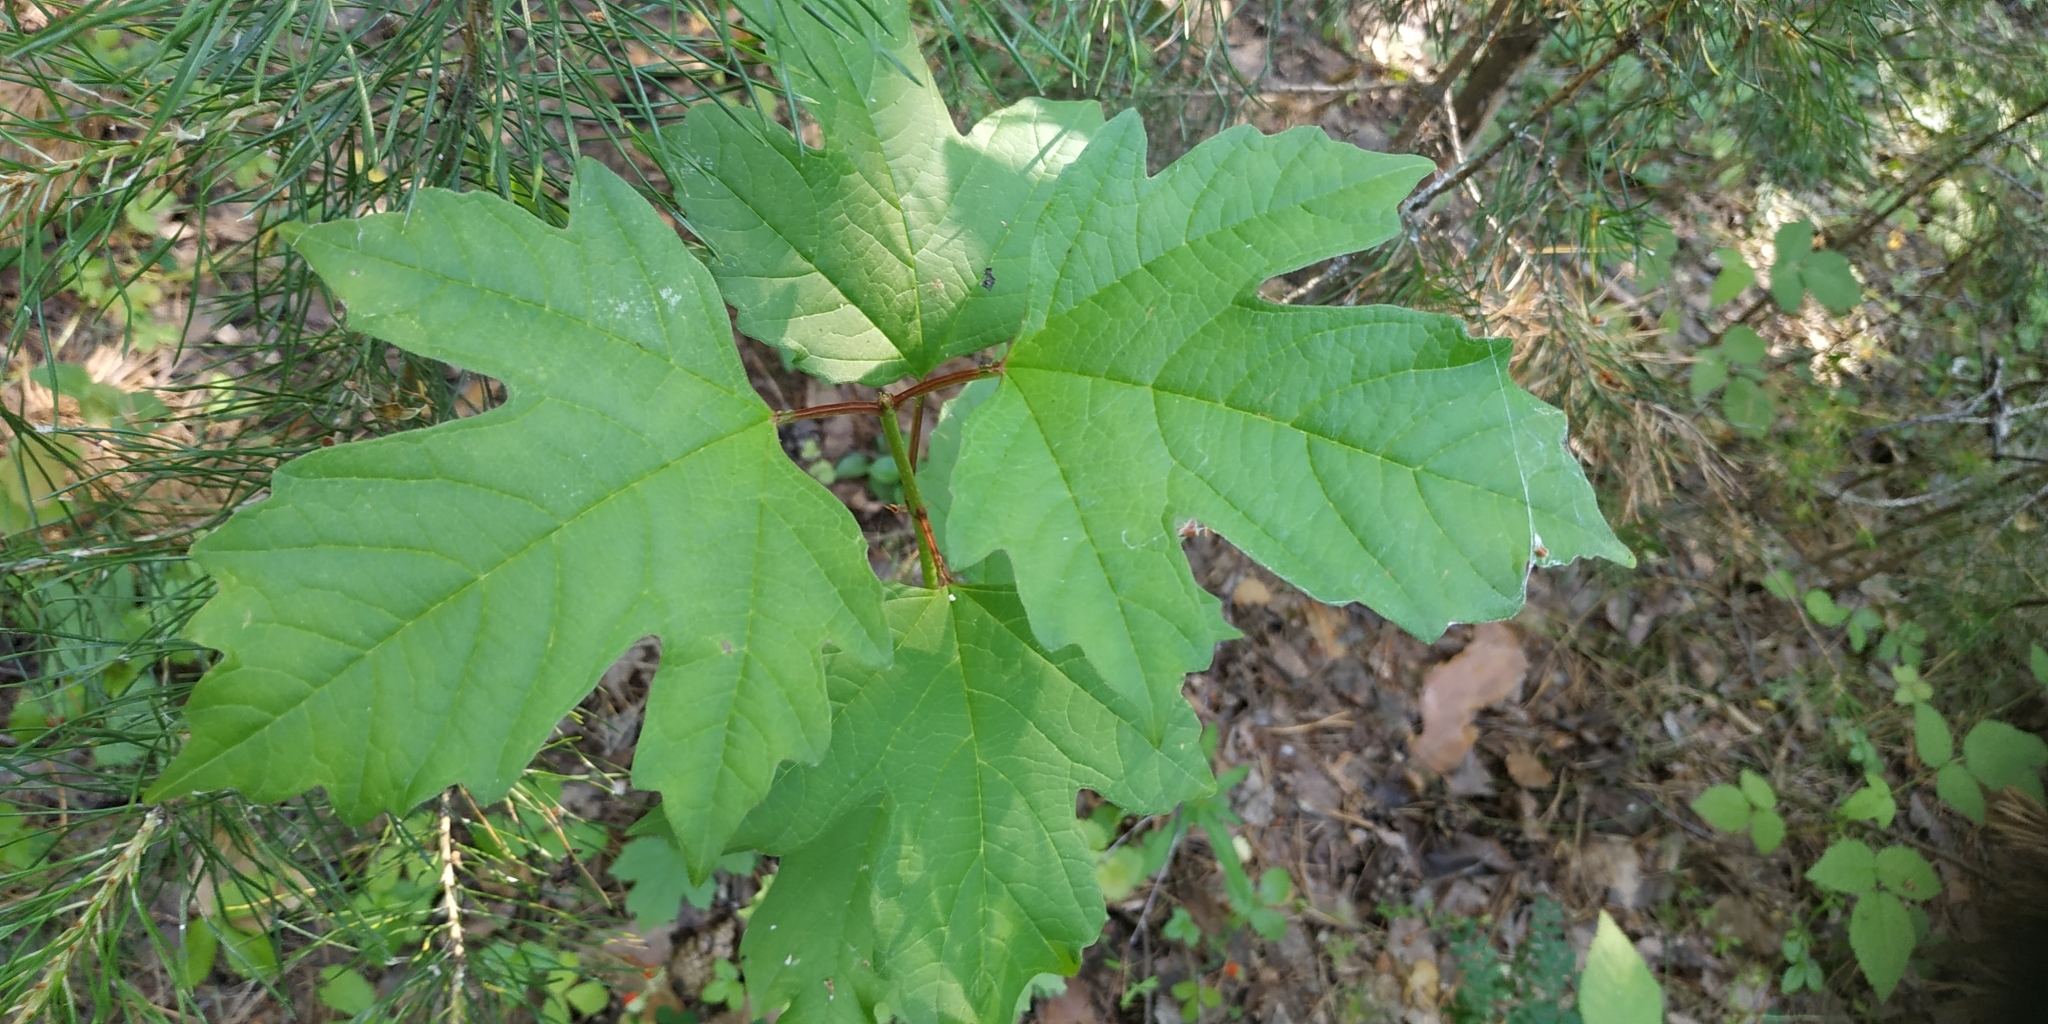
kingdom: Plantae
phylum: Tracheophyta
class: Magnoliopsida
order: Dipsacales
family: Viburnaceae
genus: Viburnum
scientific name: Viburnum opulus
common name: Guelder-rose
